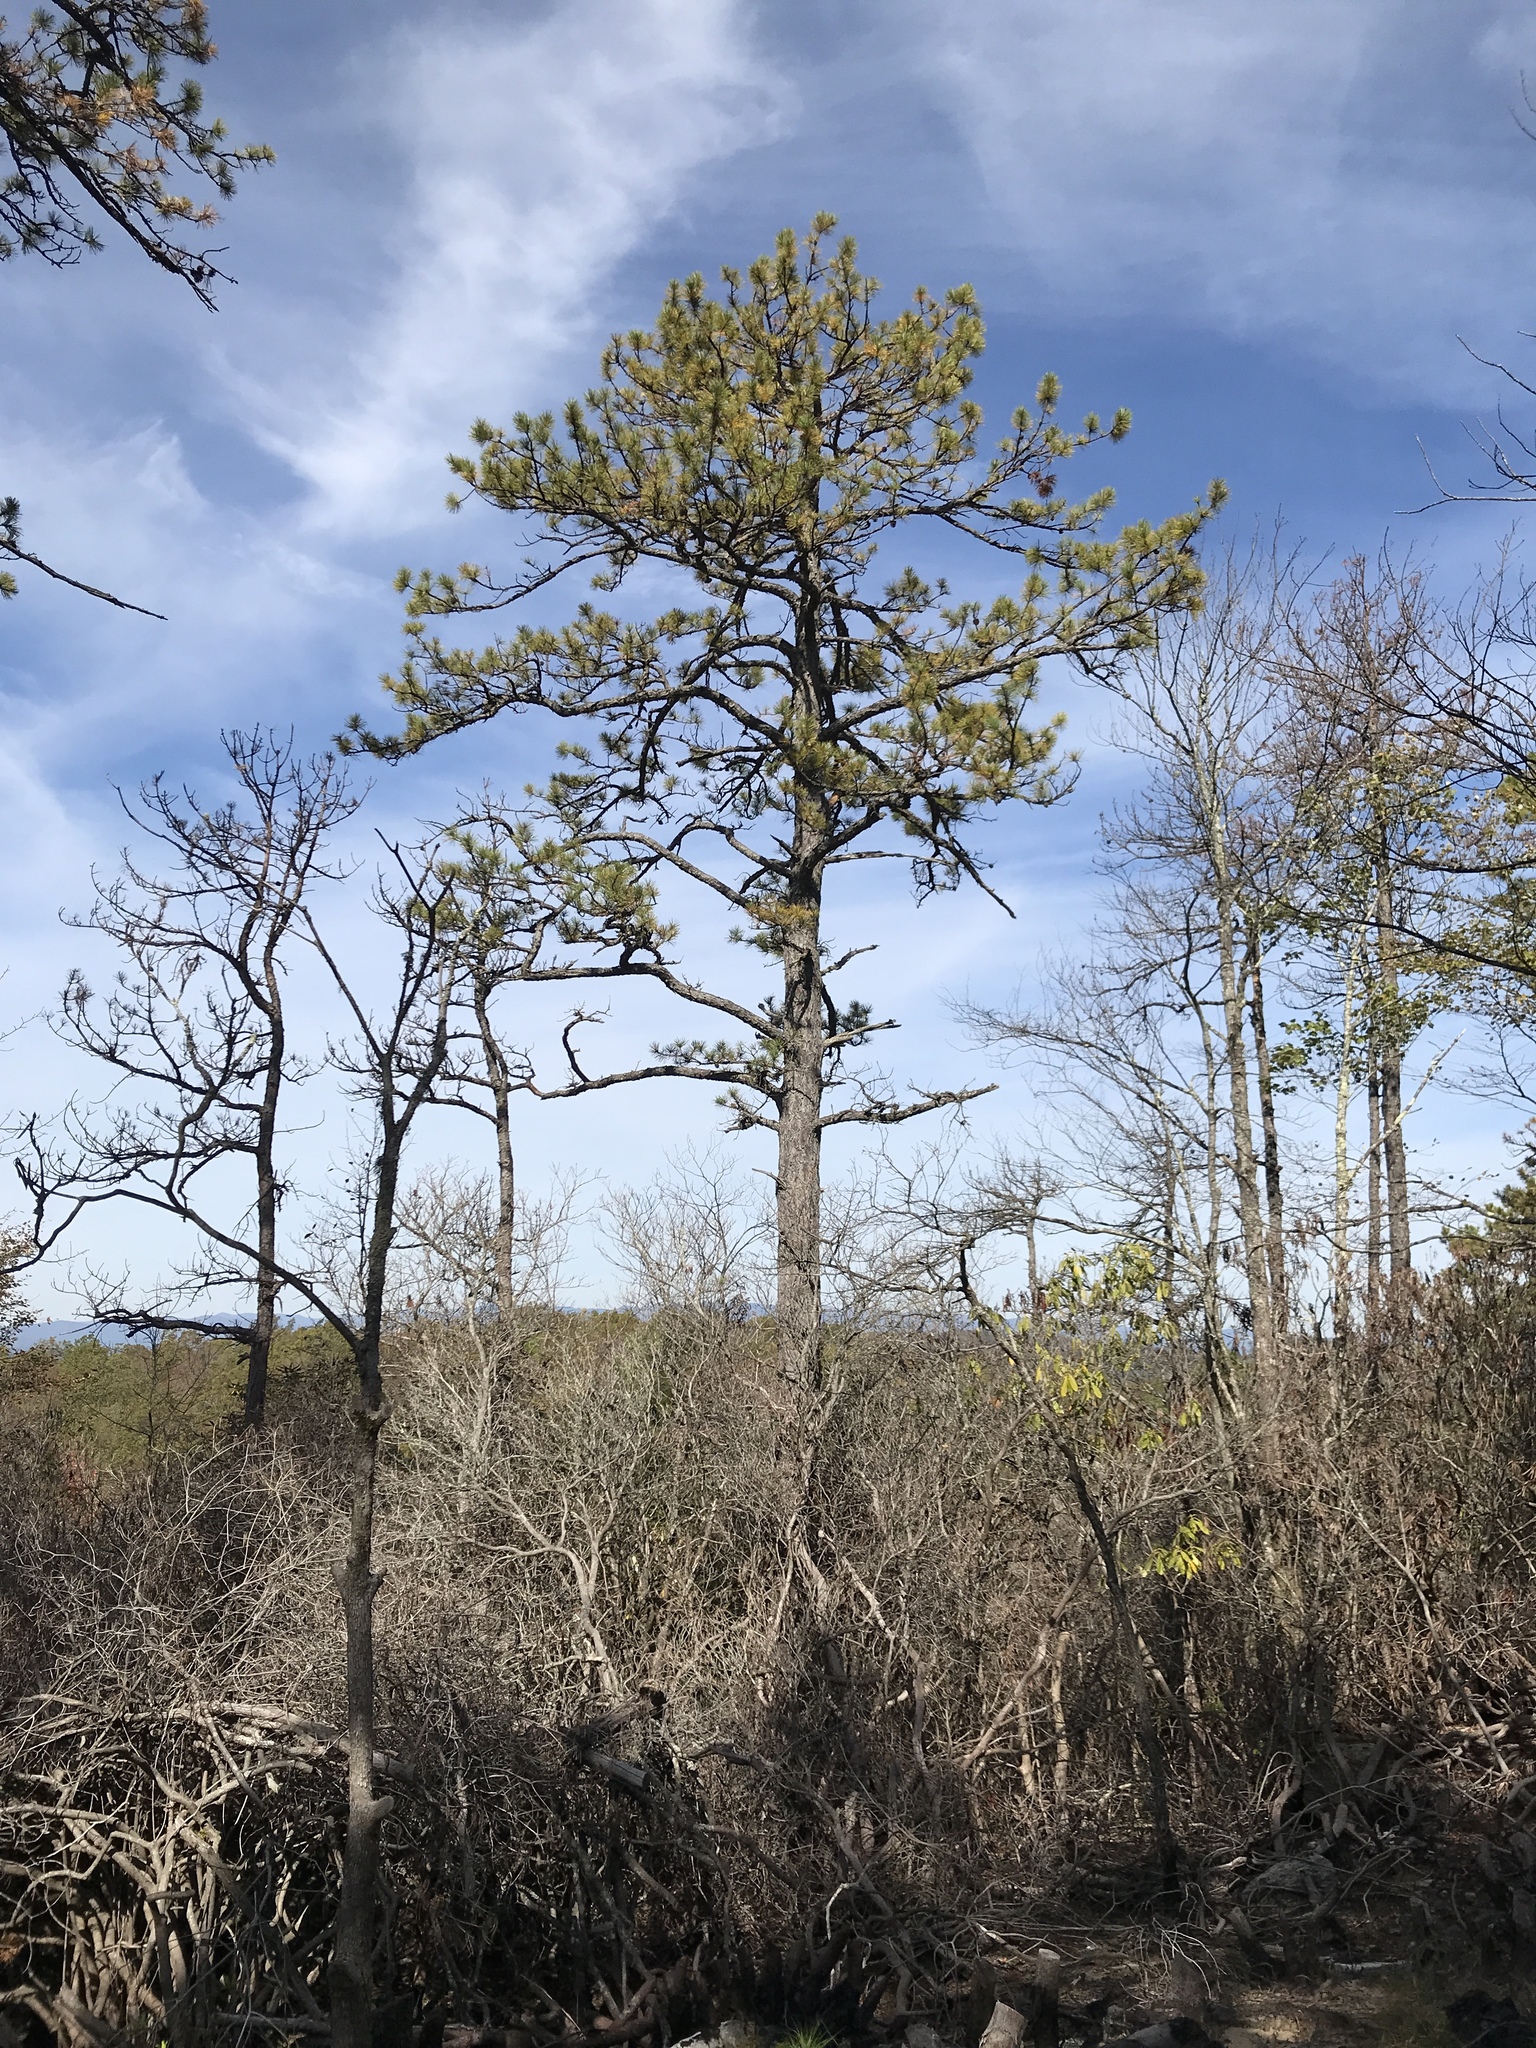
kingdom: Plantae
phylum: Tracheophyta
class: Pinopsida
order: Pinales
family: Pinaceae
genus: Pinus
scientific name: Pinus rigida
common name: Pitch pine
